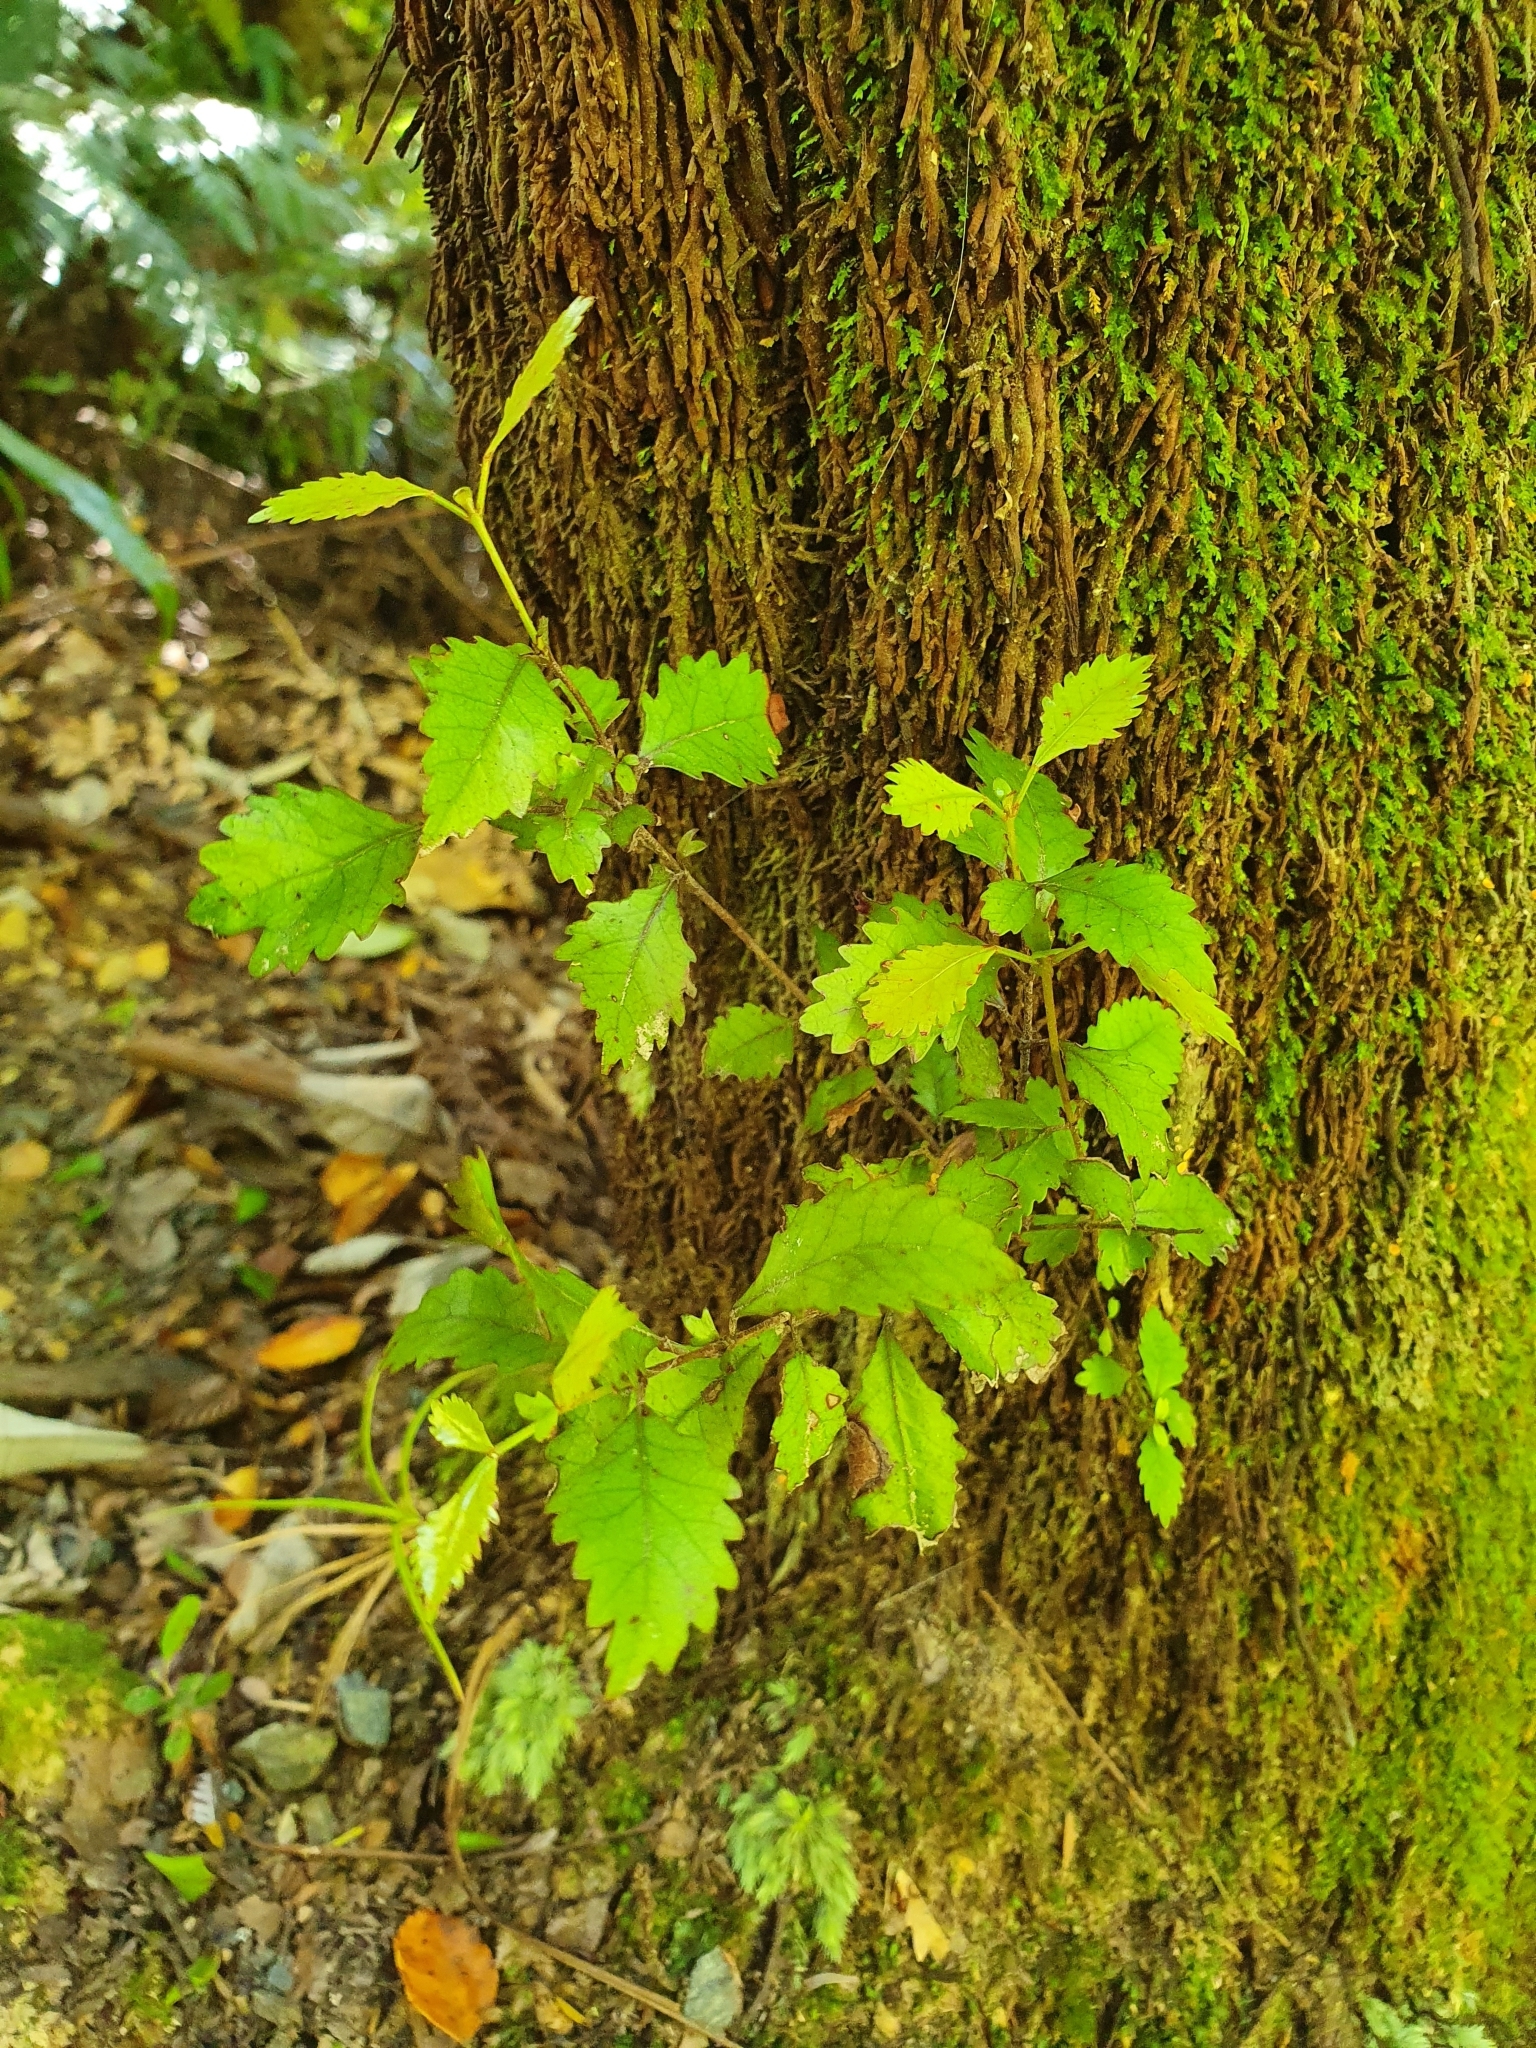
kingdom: Plantae
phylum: Tracheophyta
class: Magnoliopsida
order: Oxalidales
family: Cunoniaceae
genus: Pterophylla
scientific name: Pterophylla racemosa
